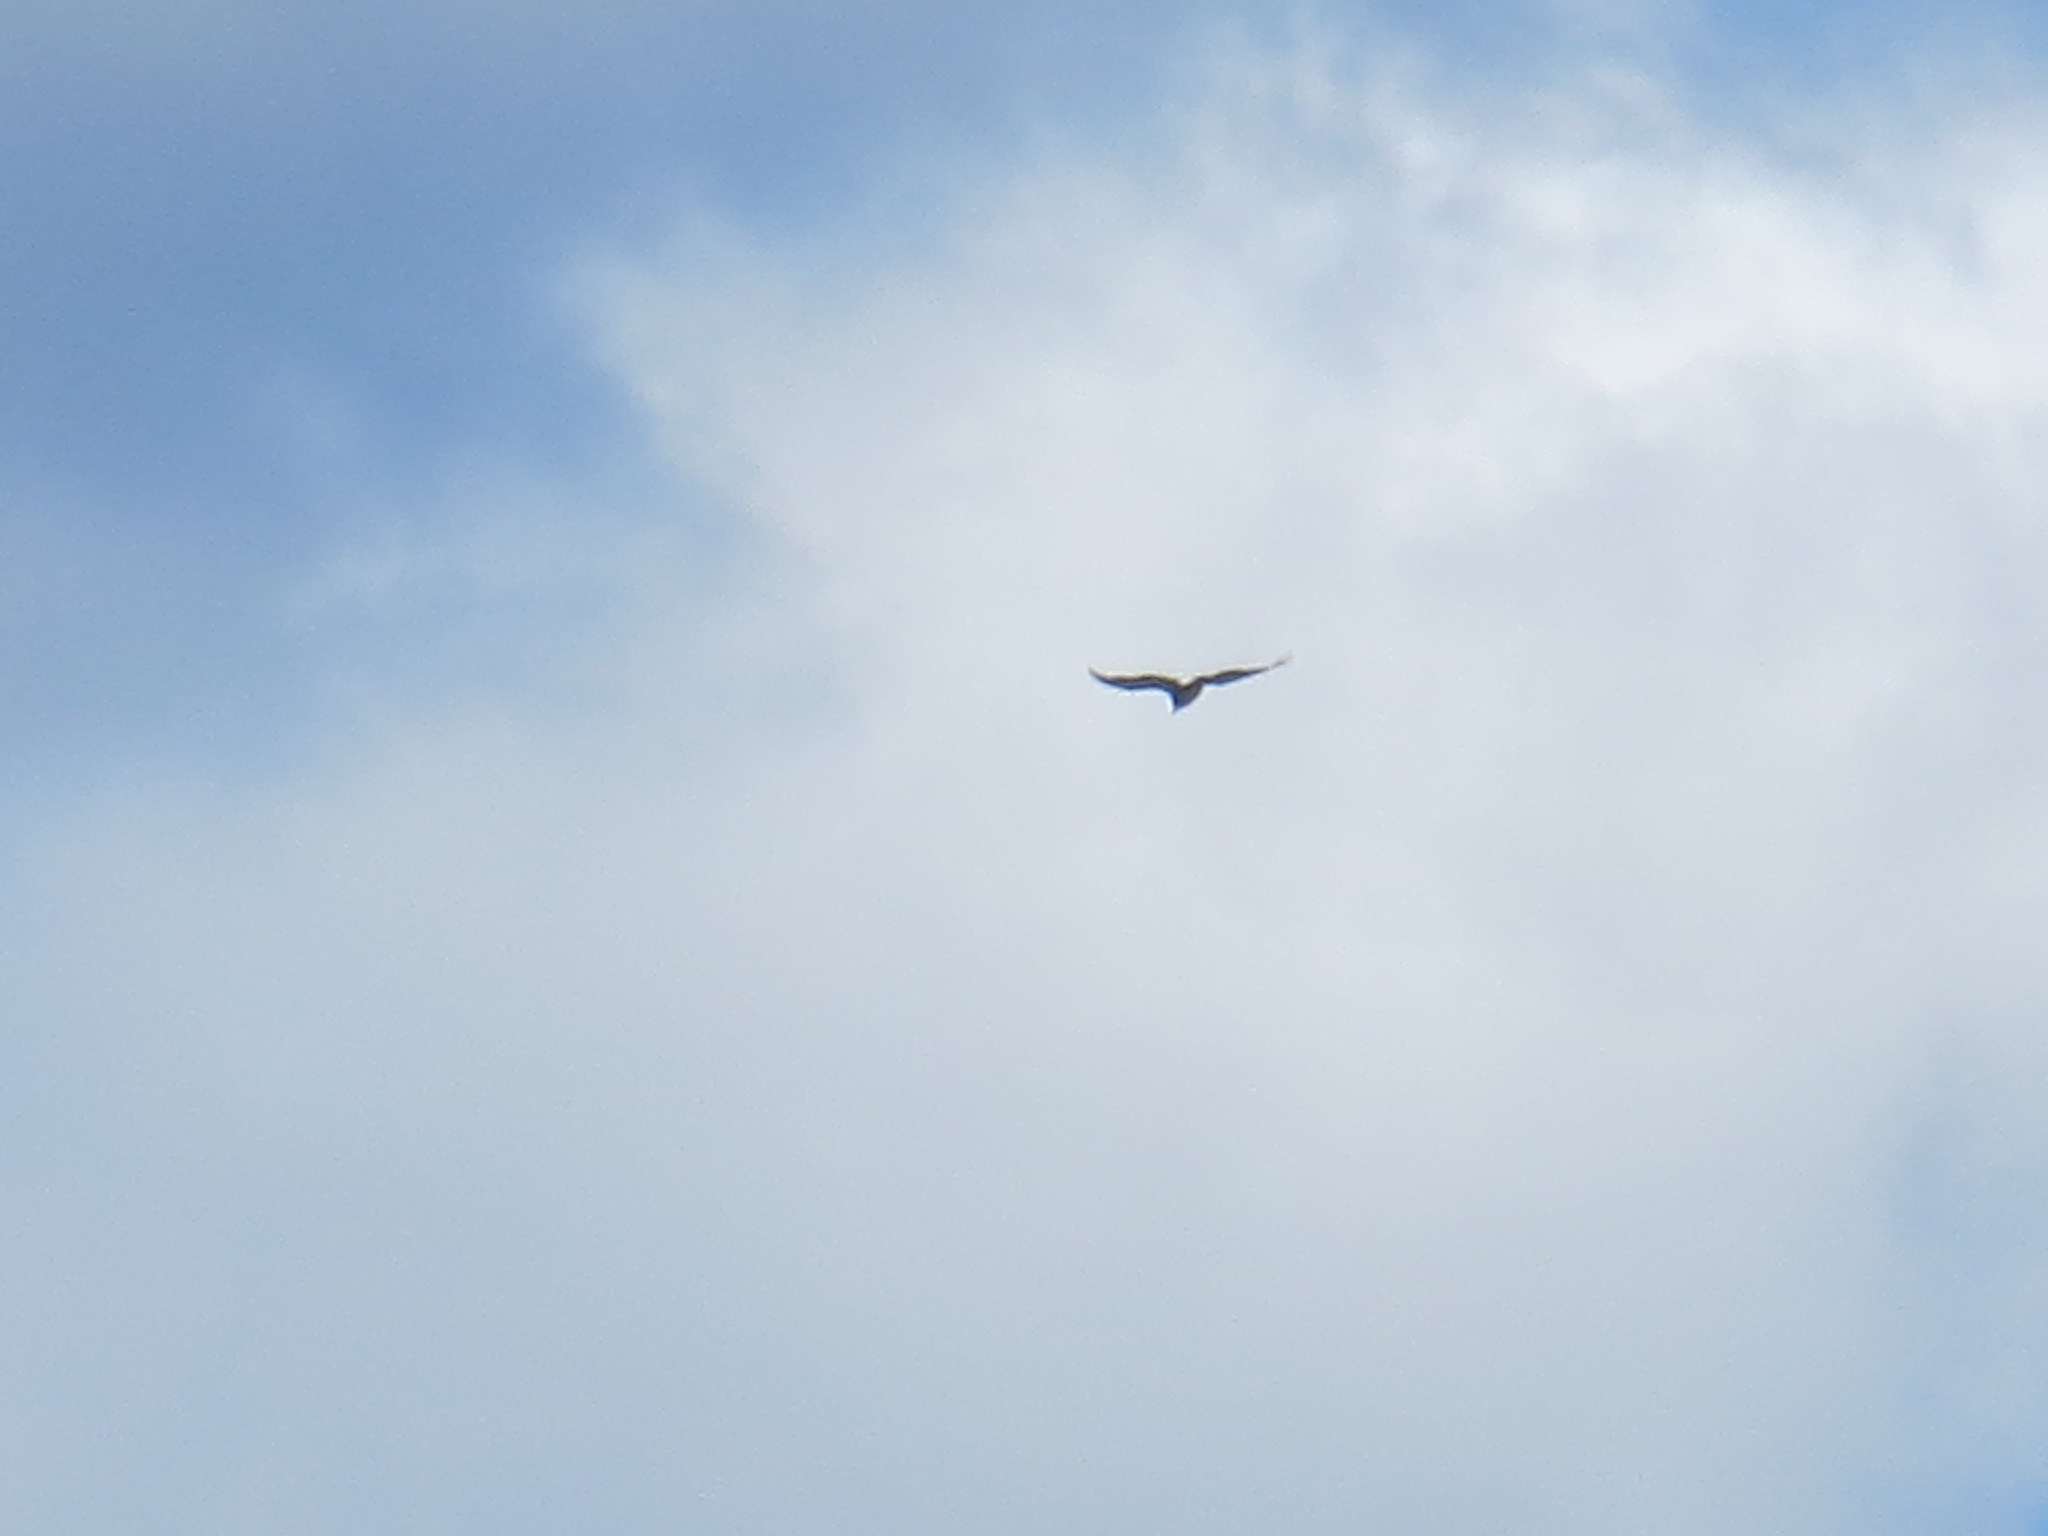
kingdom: Animalia
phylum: Chordata
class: Aves
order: Accipitriformes
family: Cathartidae
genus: Cathartes
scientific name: Cathartes aura
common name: Turkey vulture
